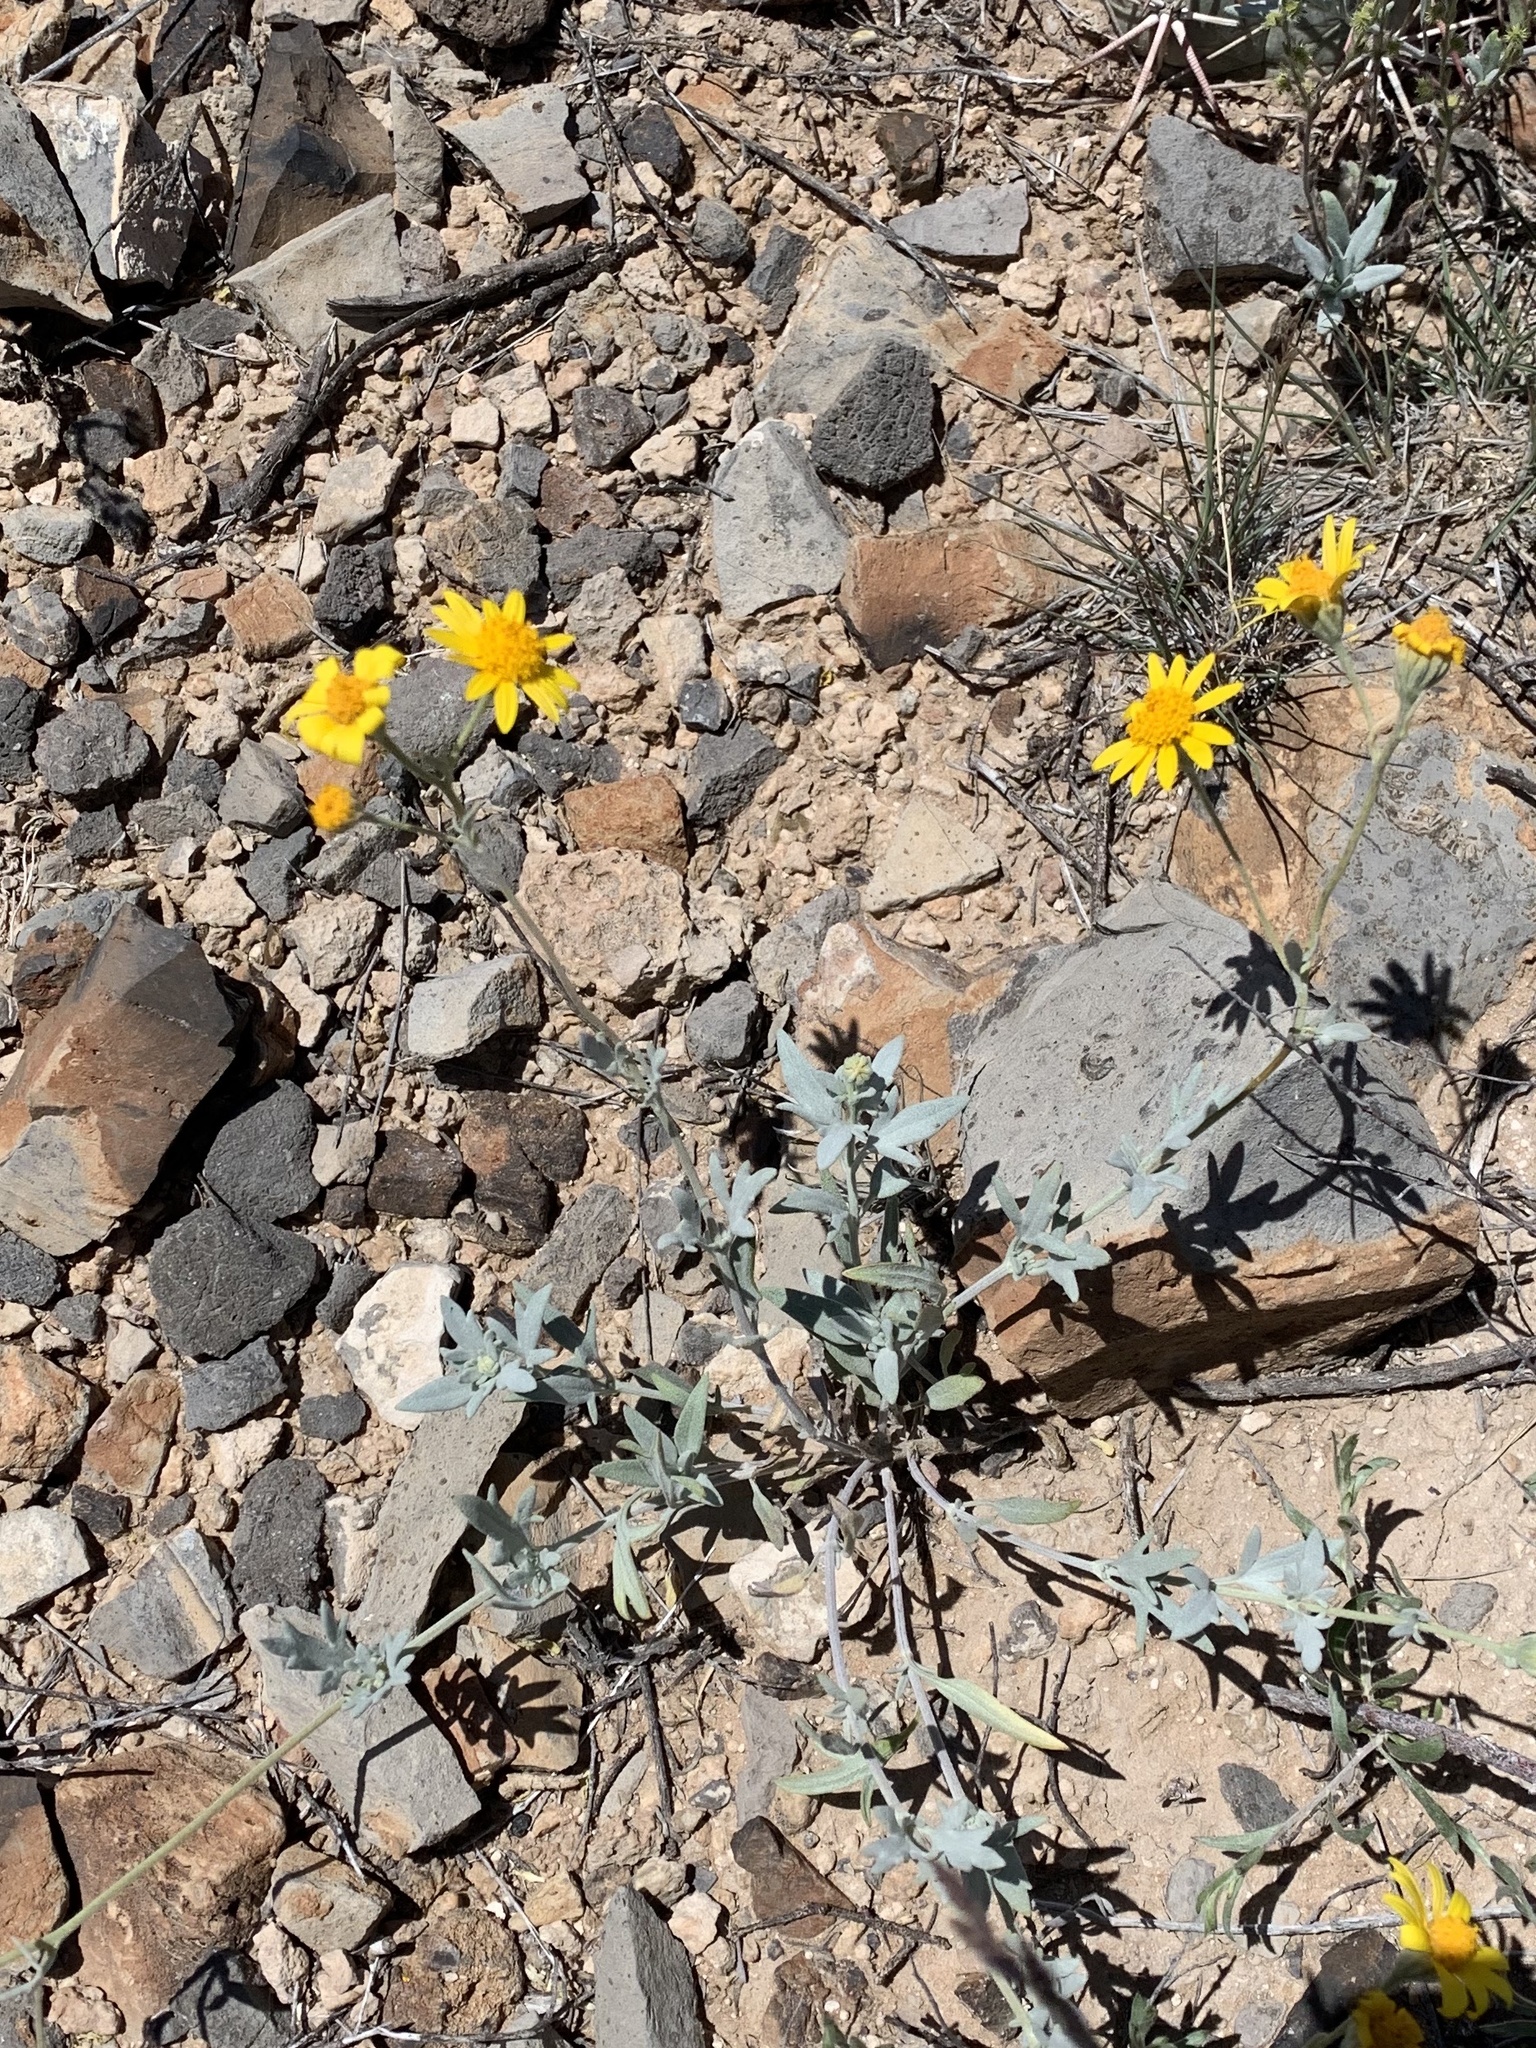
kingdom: Plantae
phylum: Tracheophyta
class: Magnoliopsida
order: Asterales
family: Asteraceae
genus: Picradeniopsis
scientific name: Picradeniopsis absinthifolia
